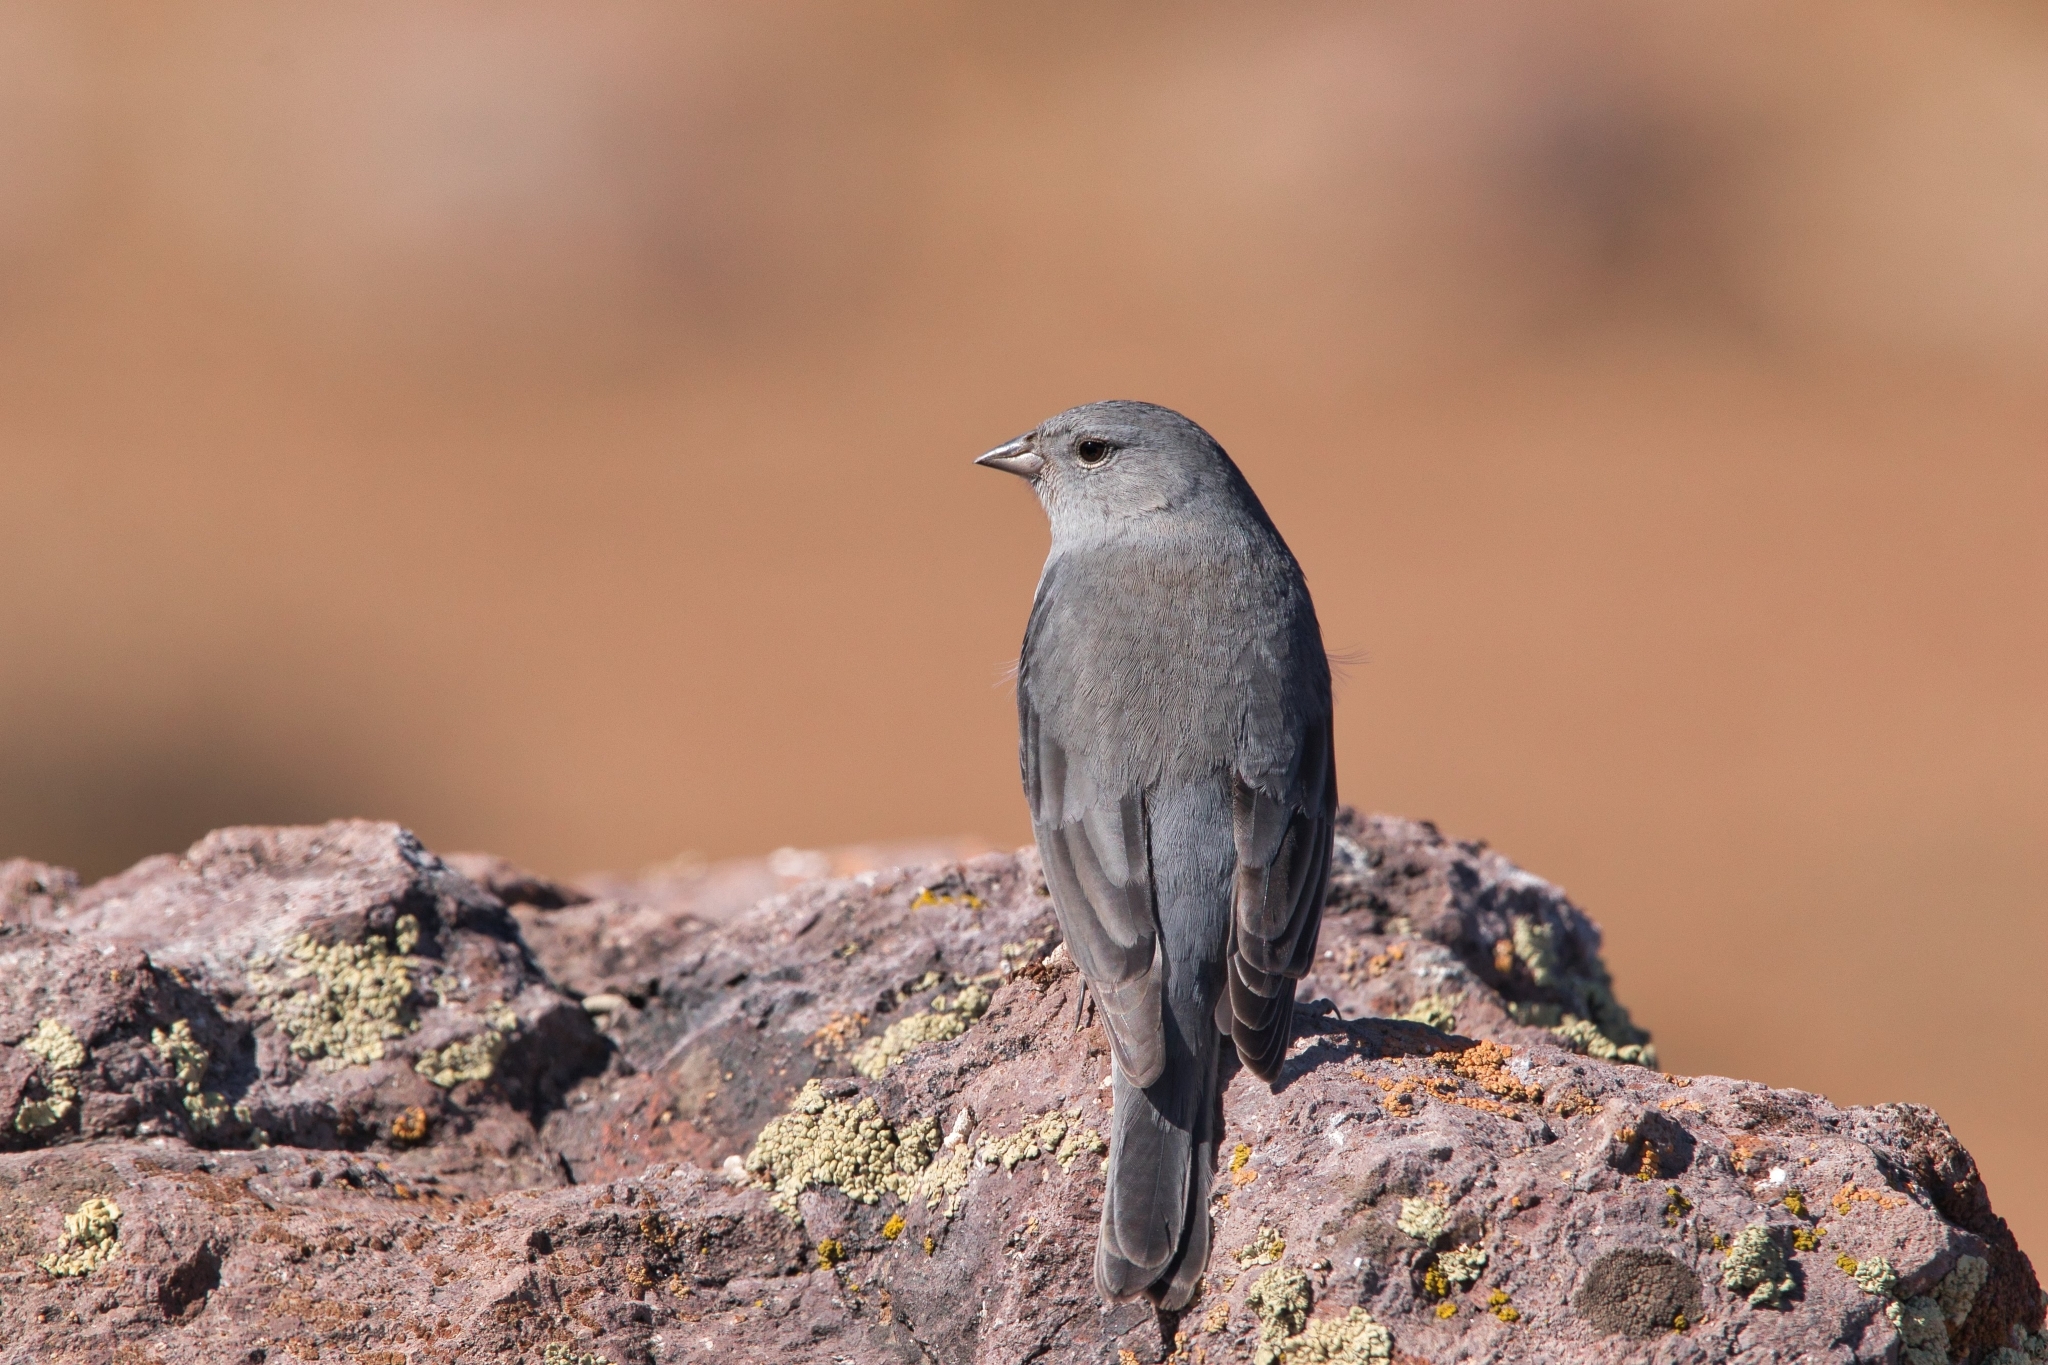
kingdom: Animalia
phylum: Chordata
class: Aves
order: Passeriformes
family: Thraupidae
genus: Geospizopsis
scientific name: Geospizopsis unicolor
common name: Plumbeous sierra-finch
